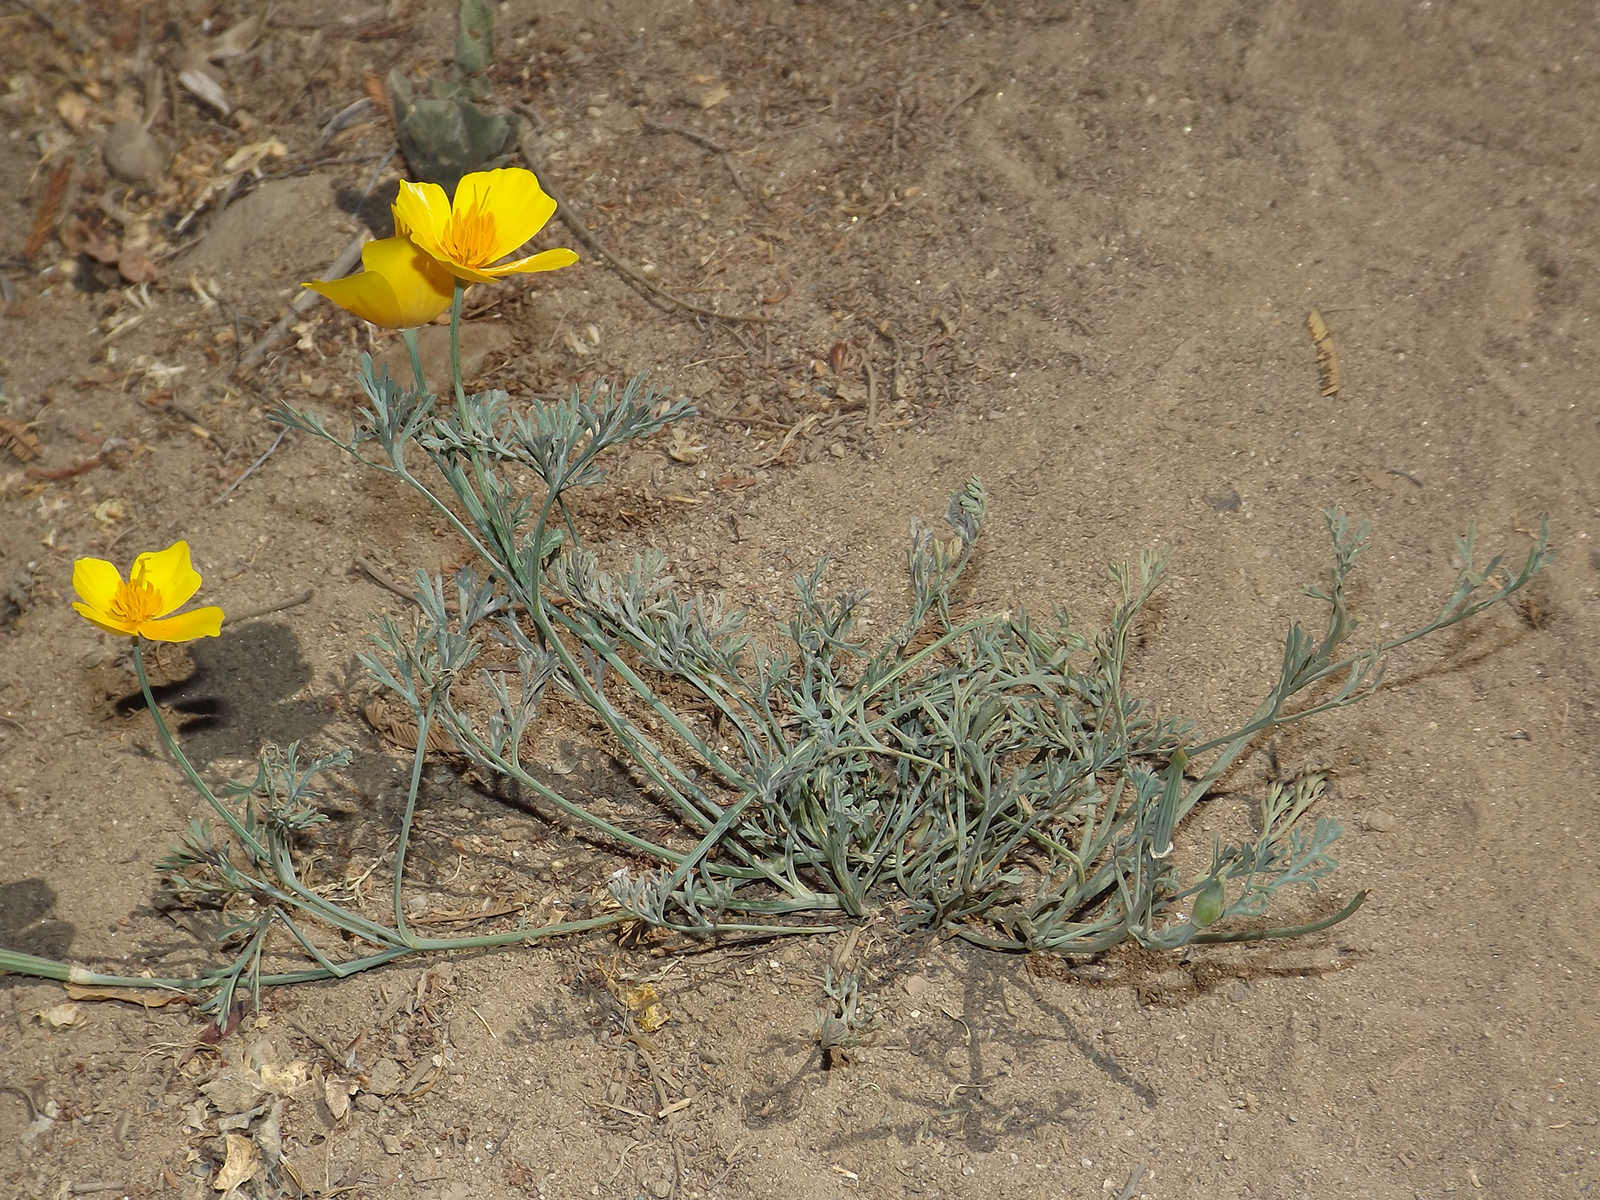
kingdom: Plantae
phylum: Tracheophyta
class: Magnoliopsida
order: Ranunculales
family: Papaveraceae
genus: Eschscholzia
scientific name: Eschscholzia californica
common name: California poppy
